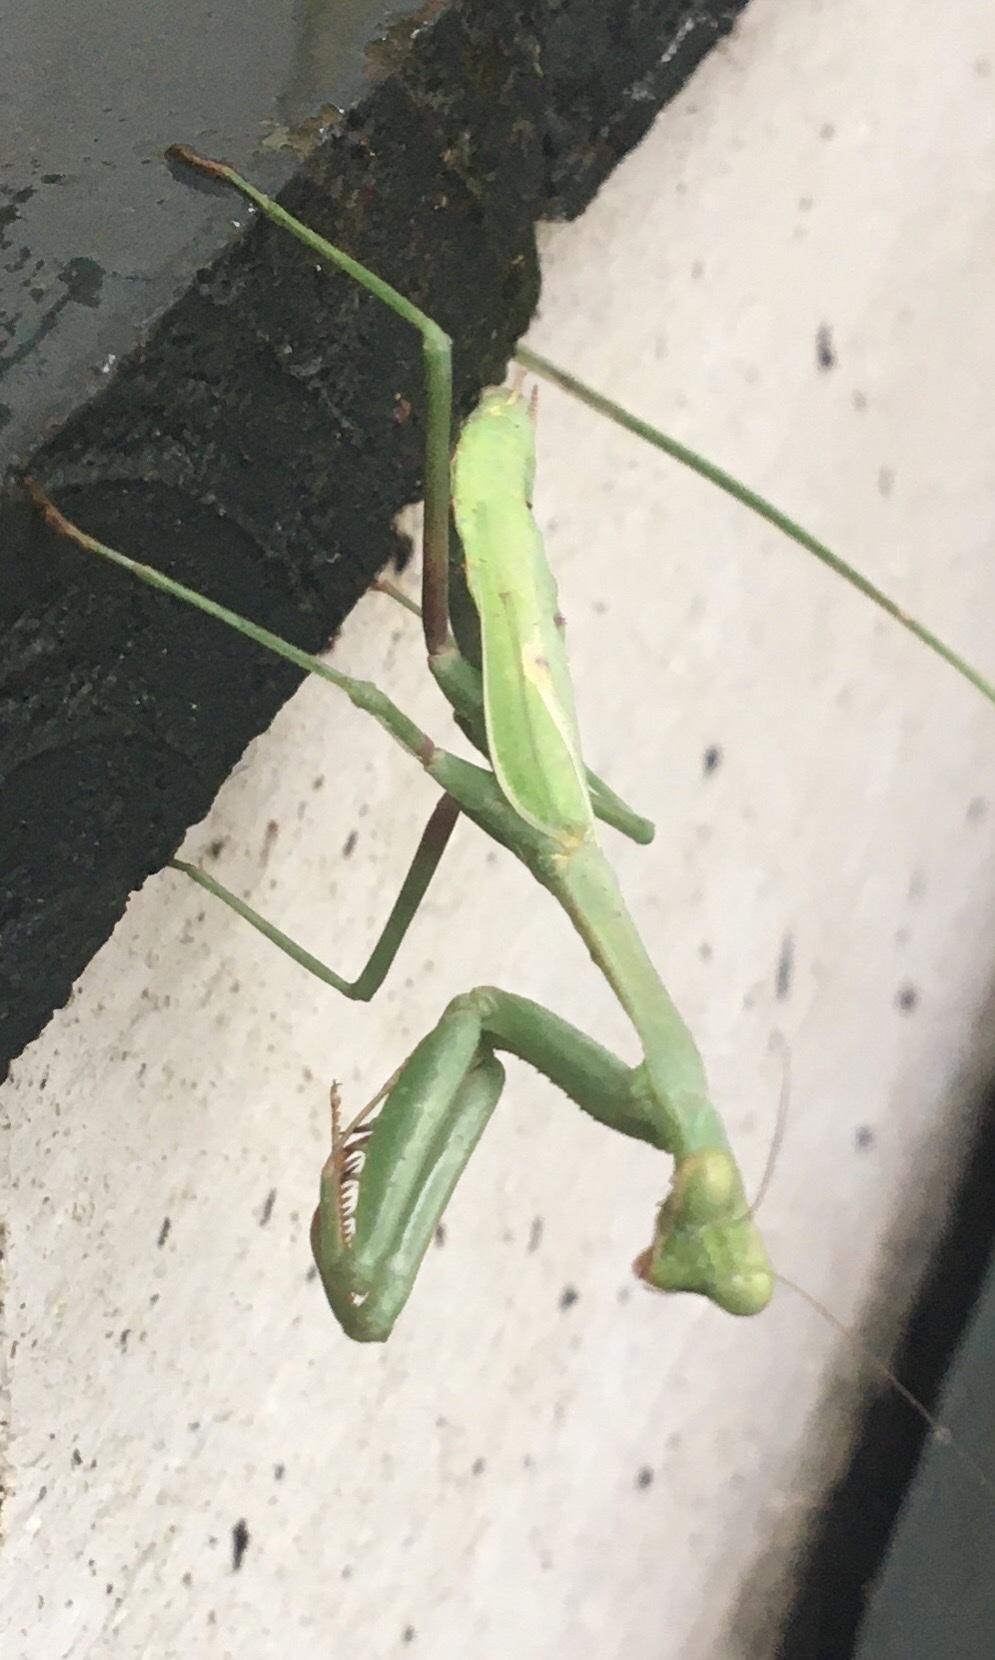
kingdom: Animalia
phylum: Arthropoda
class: Insecta
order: Mantodea
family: Mantidae
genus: Stagmomantis
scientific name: Stagmomantis carolina
